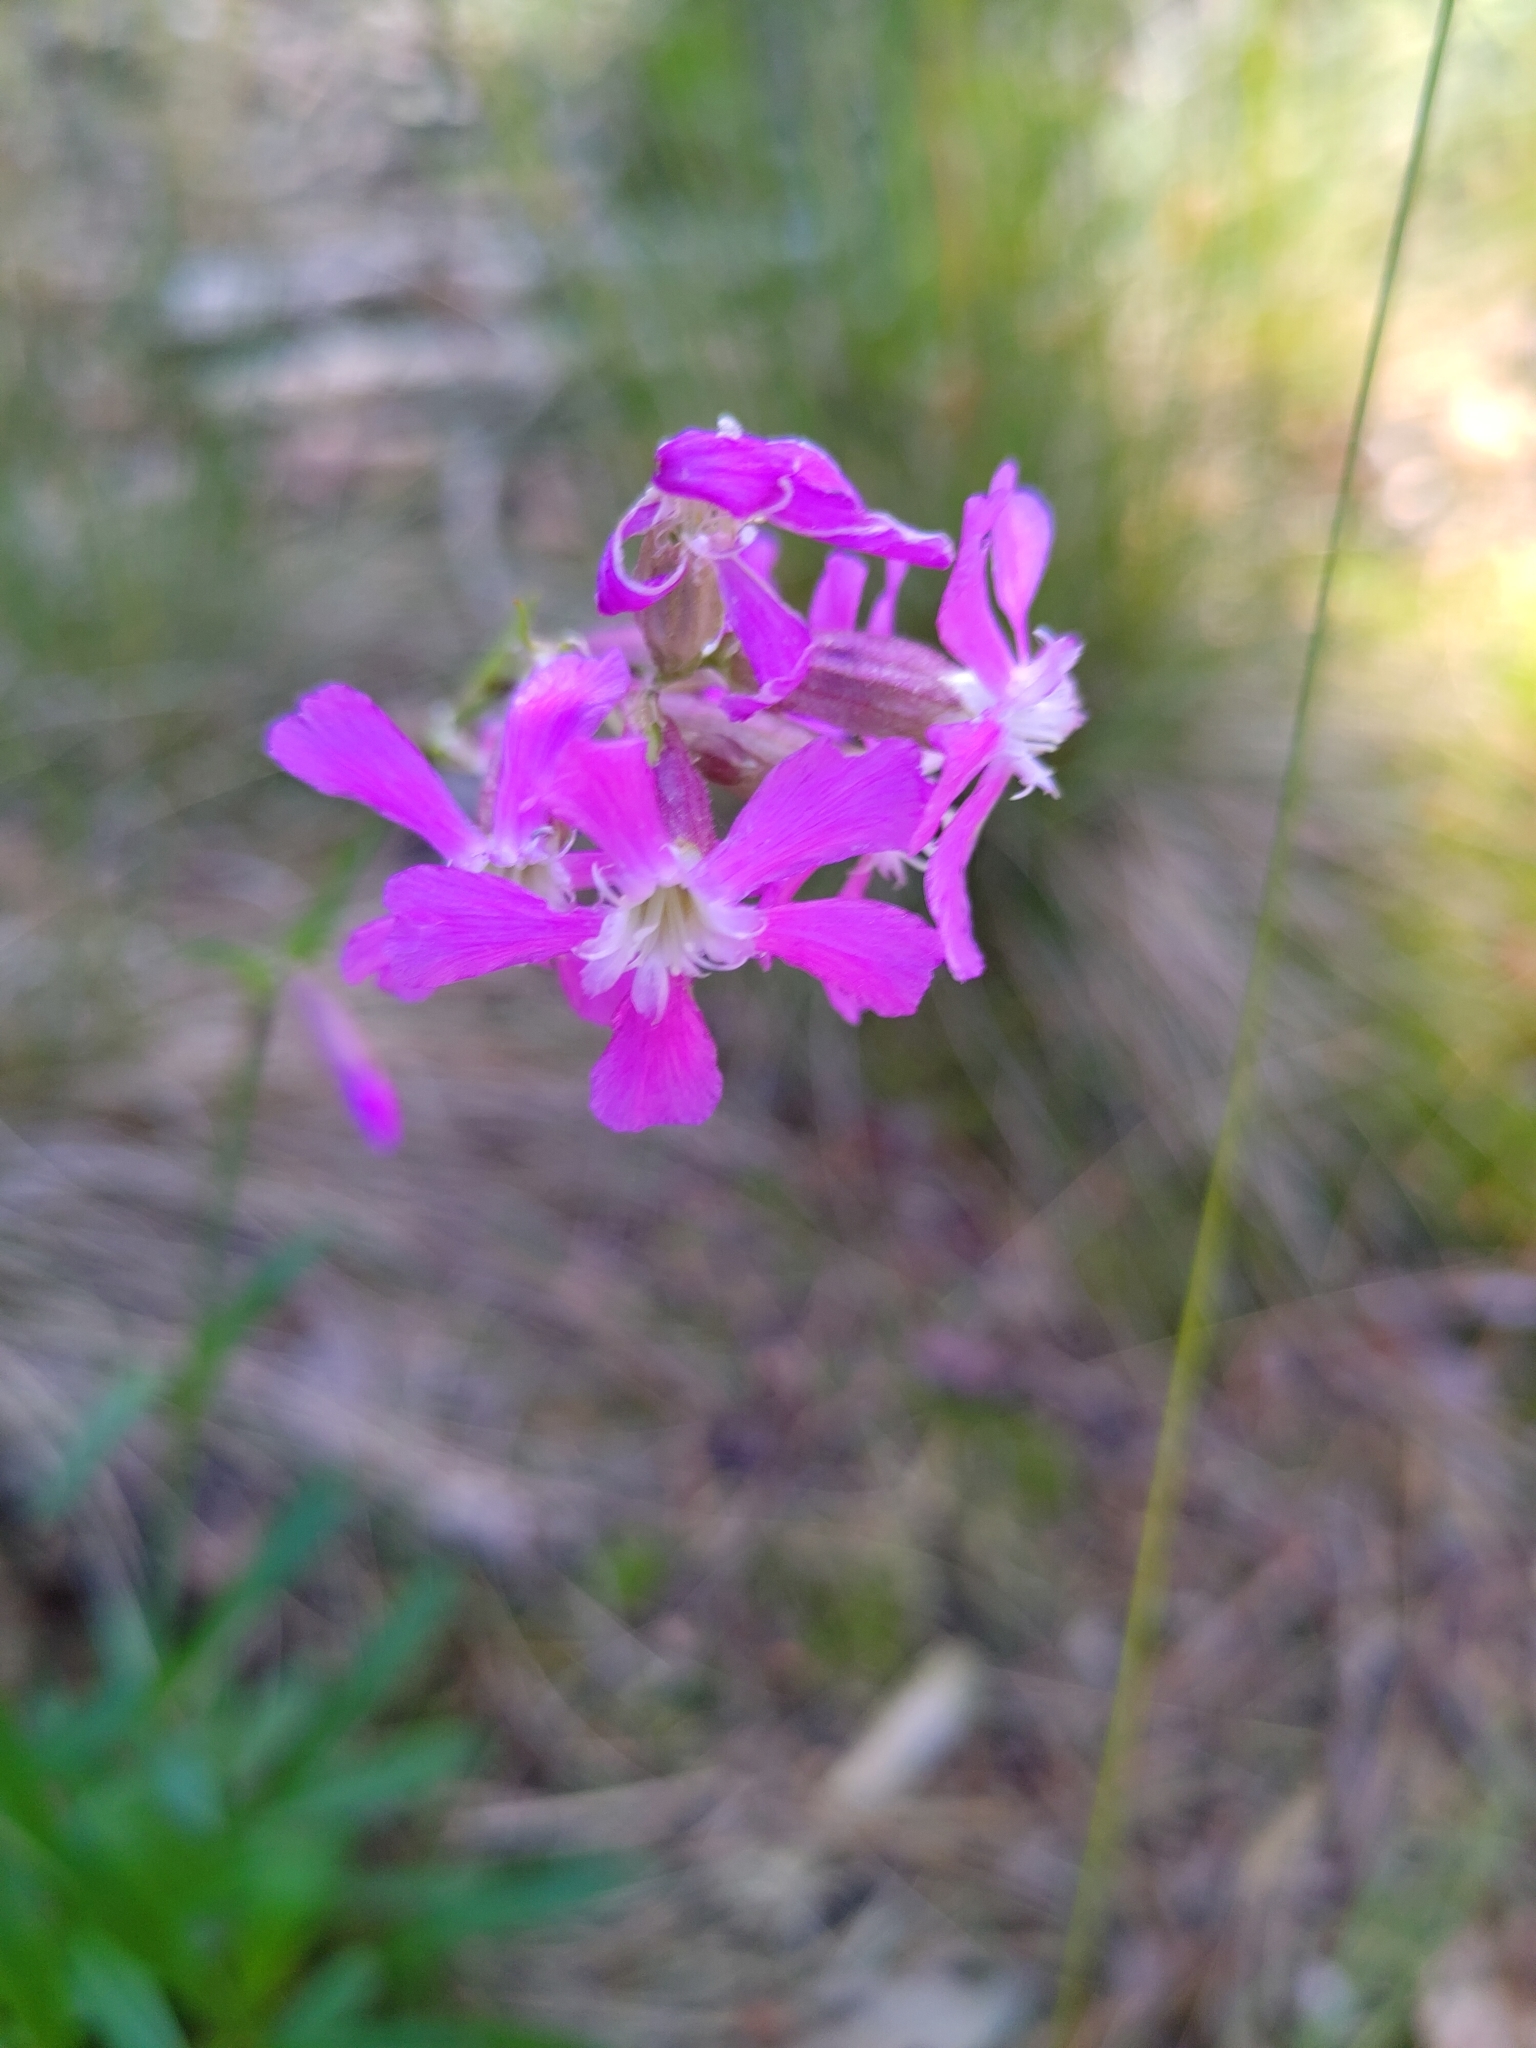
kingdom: Plantae
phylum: Tracheophyta
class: Magnoliopsida
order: Caryophyllales
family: Caryophyllaceae
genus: Viscaria
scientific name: Viscaria vulgaris
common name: Clammy campion
